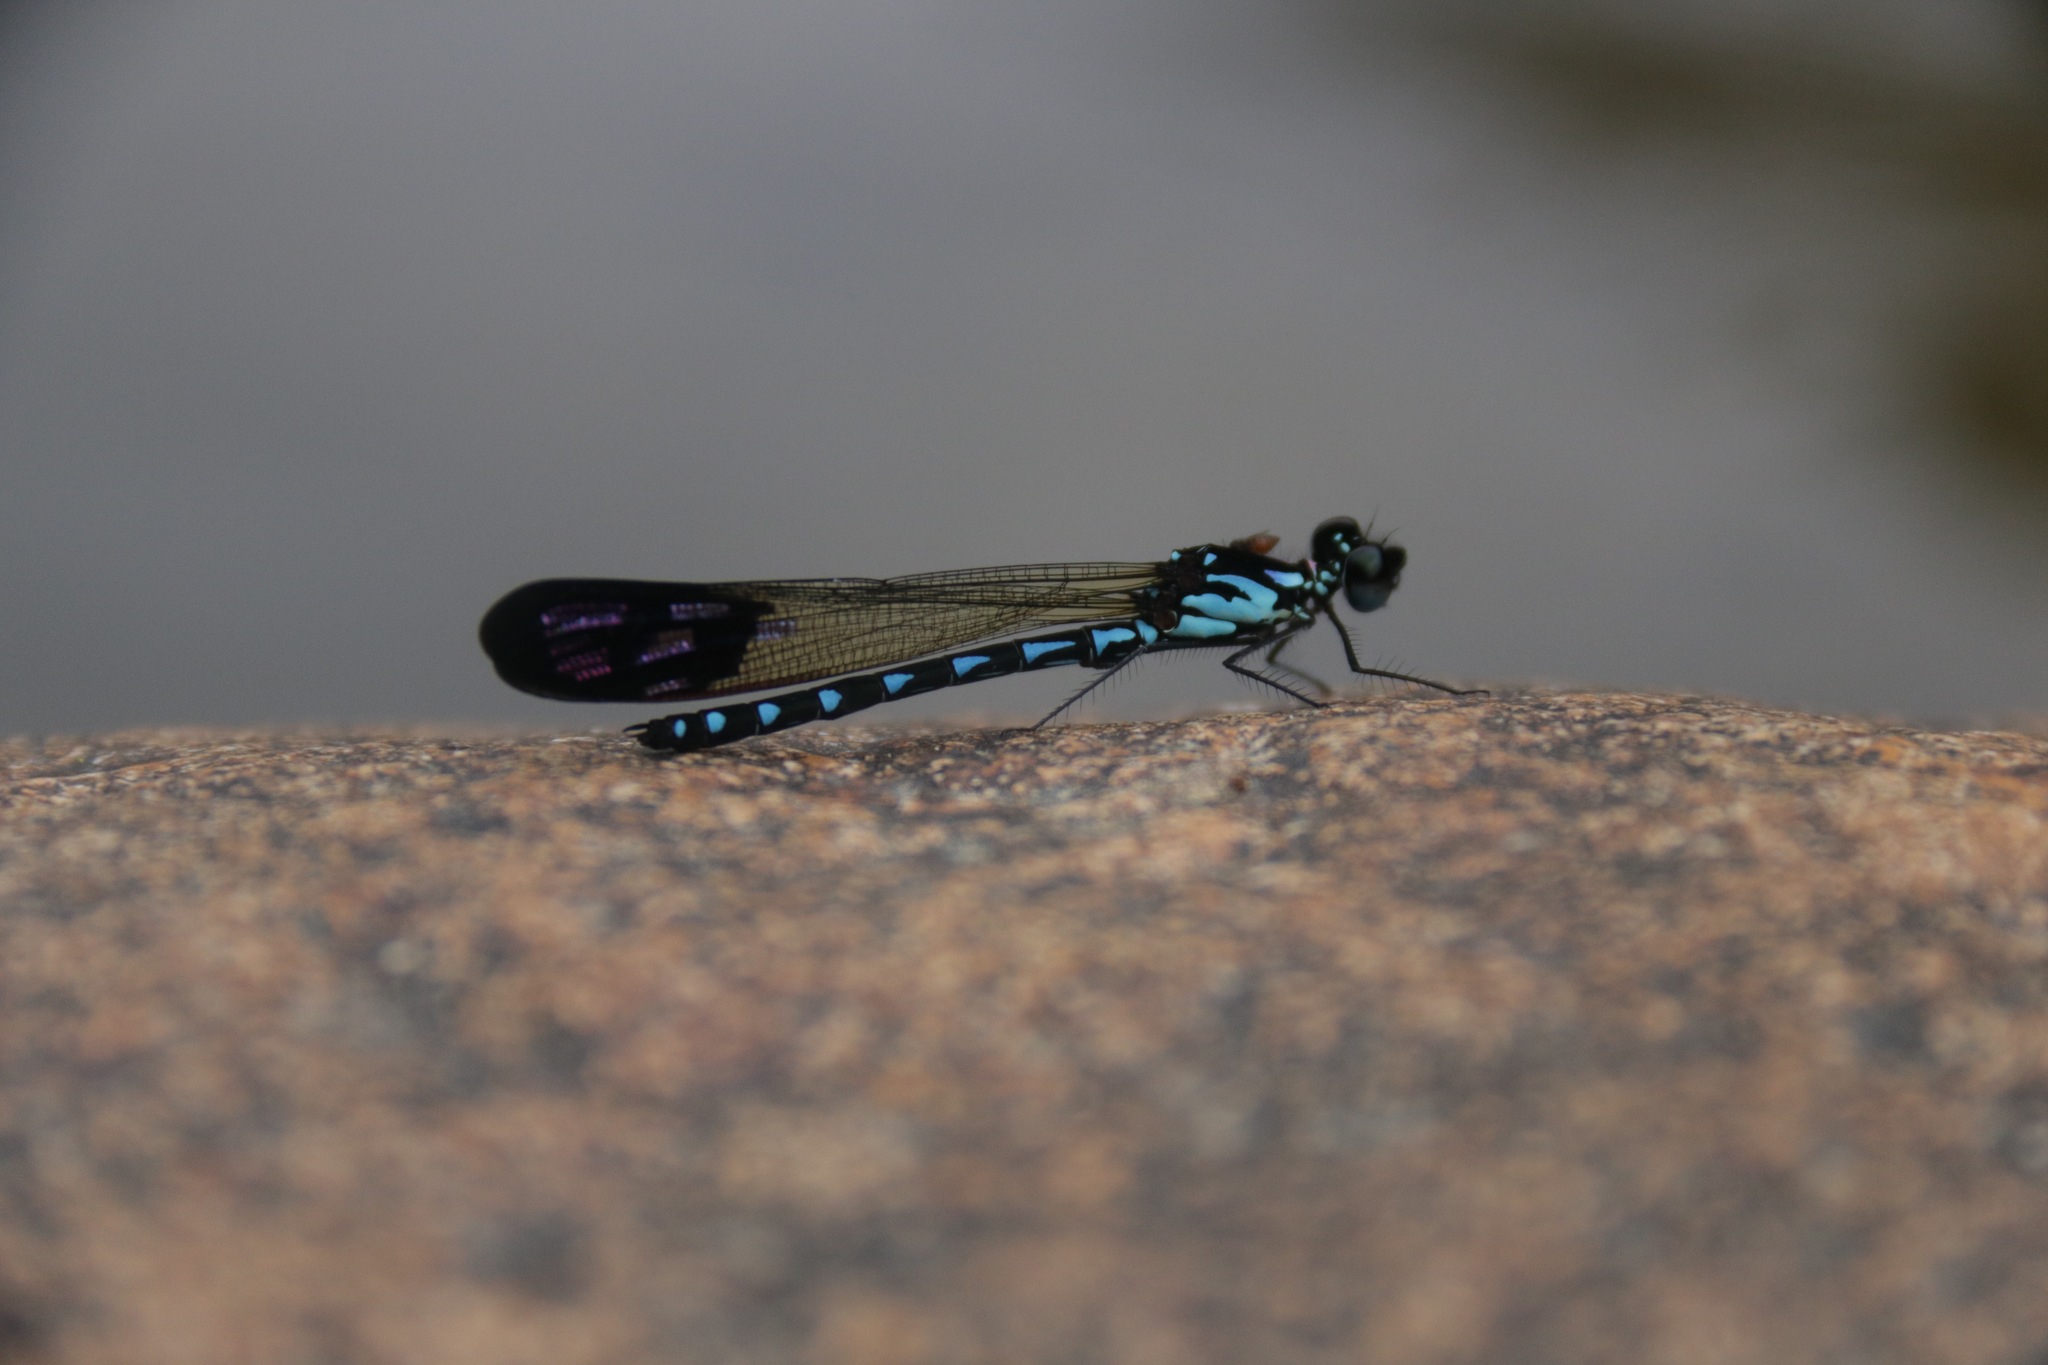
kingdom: Animalia
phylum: Arthropoda
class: Insecta
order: Odonata
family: Chlorocyphidae
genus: Heliocypha
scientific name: Heliocypha perforata
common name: Common blue jewel
